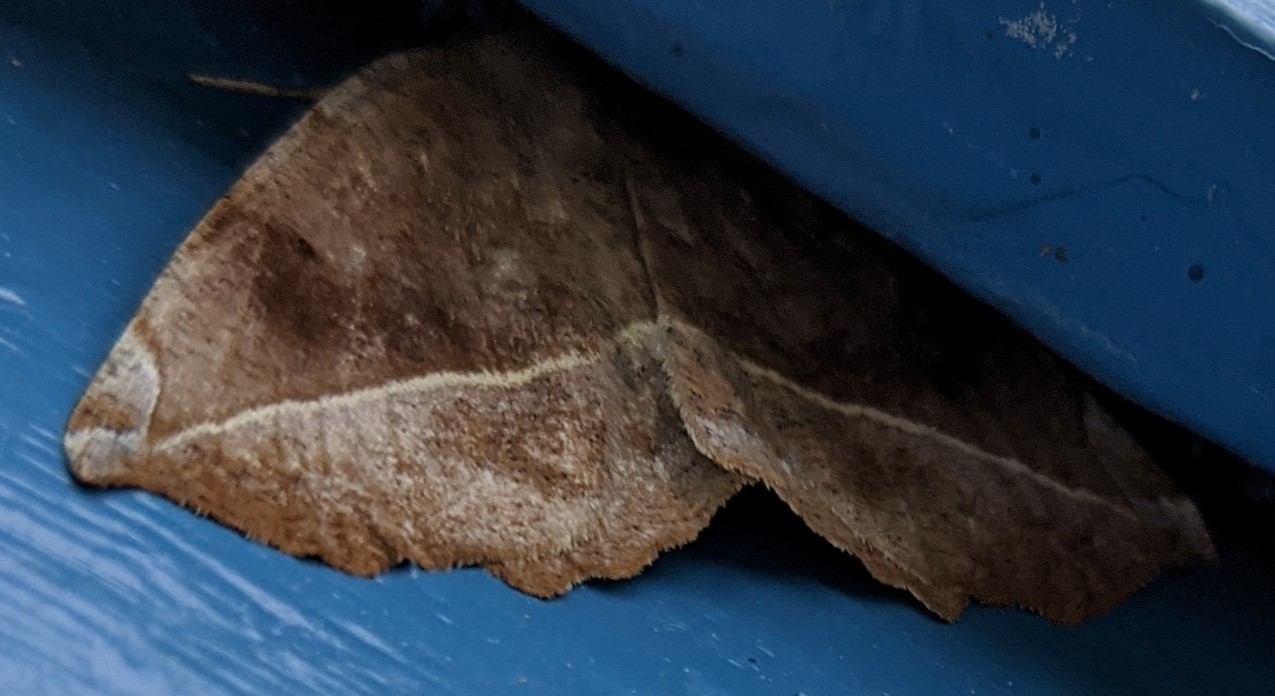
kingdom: Animalia
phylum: Arthropoda
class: Insecta
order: Lepidoptera
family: Geometridae
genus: Eutrapela
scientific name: Eutrapela clemataria
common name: Curved-toothed geometer
